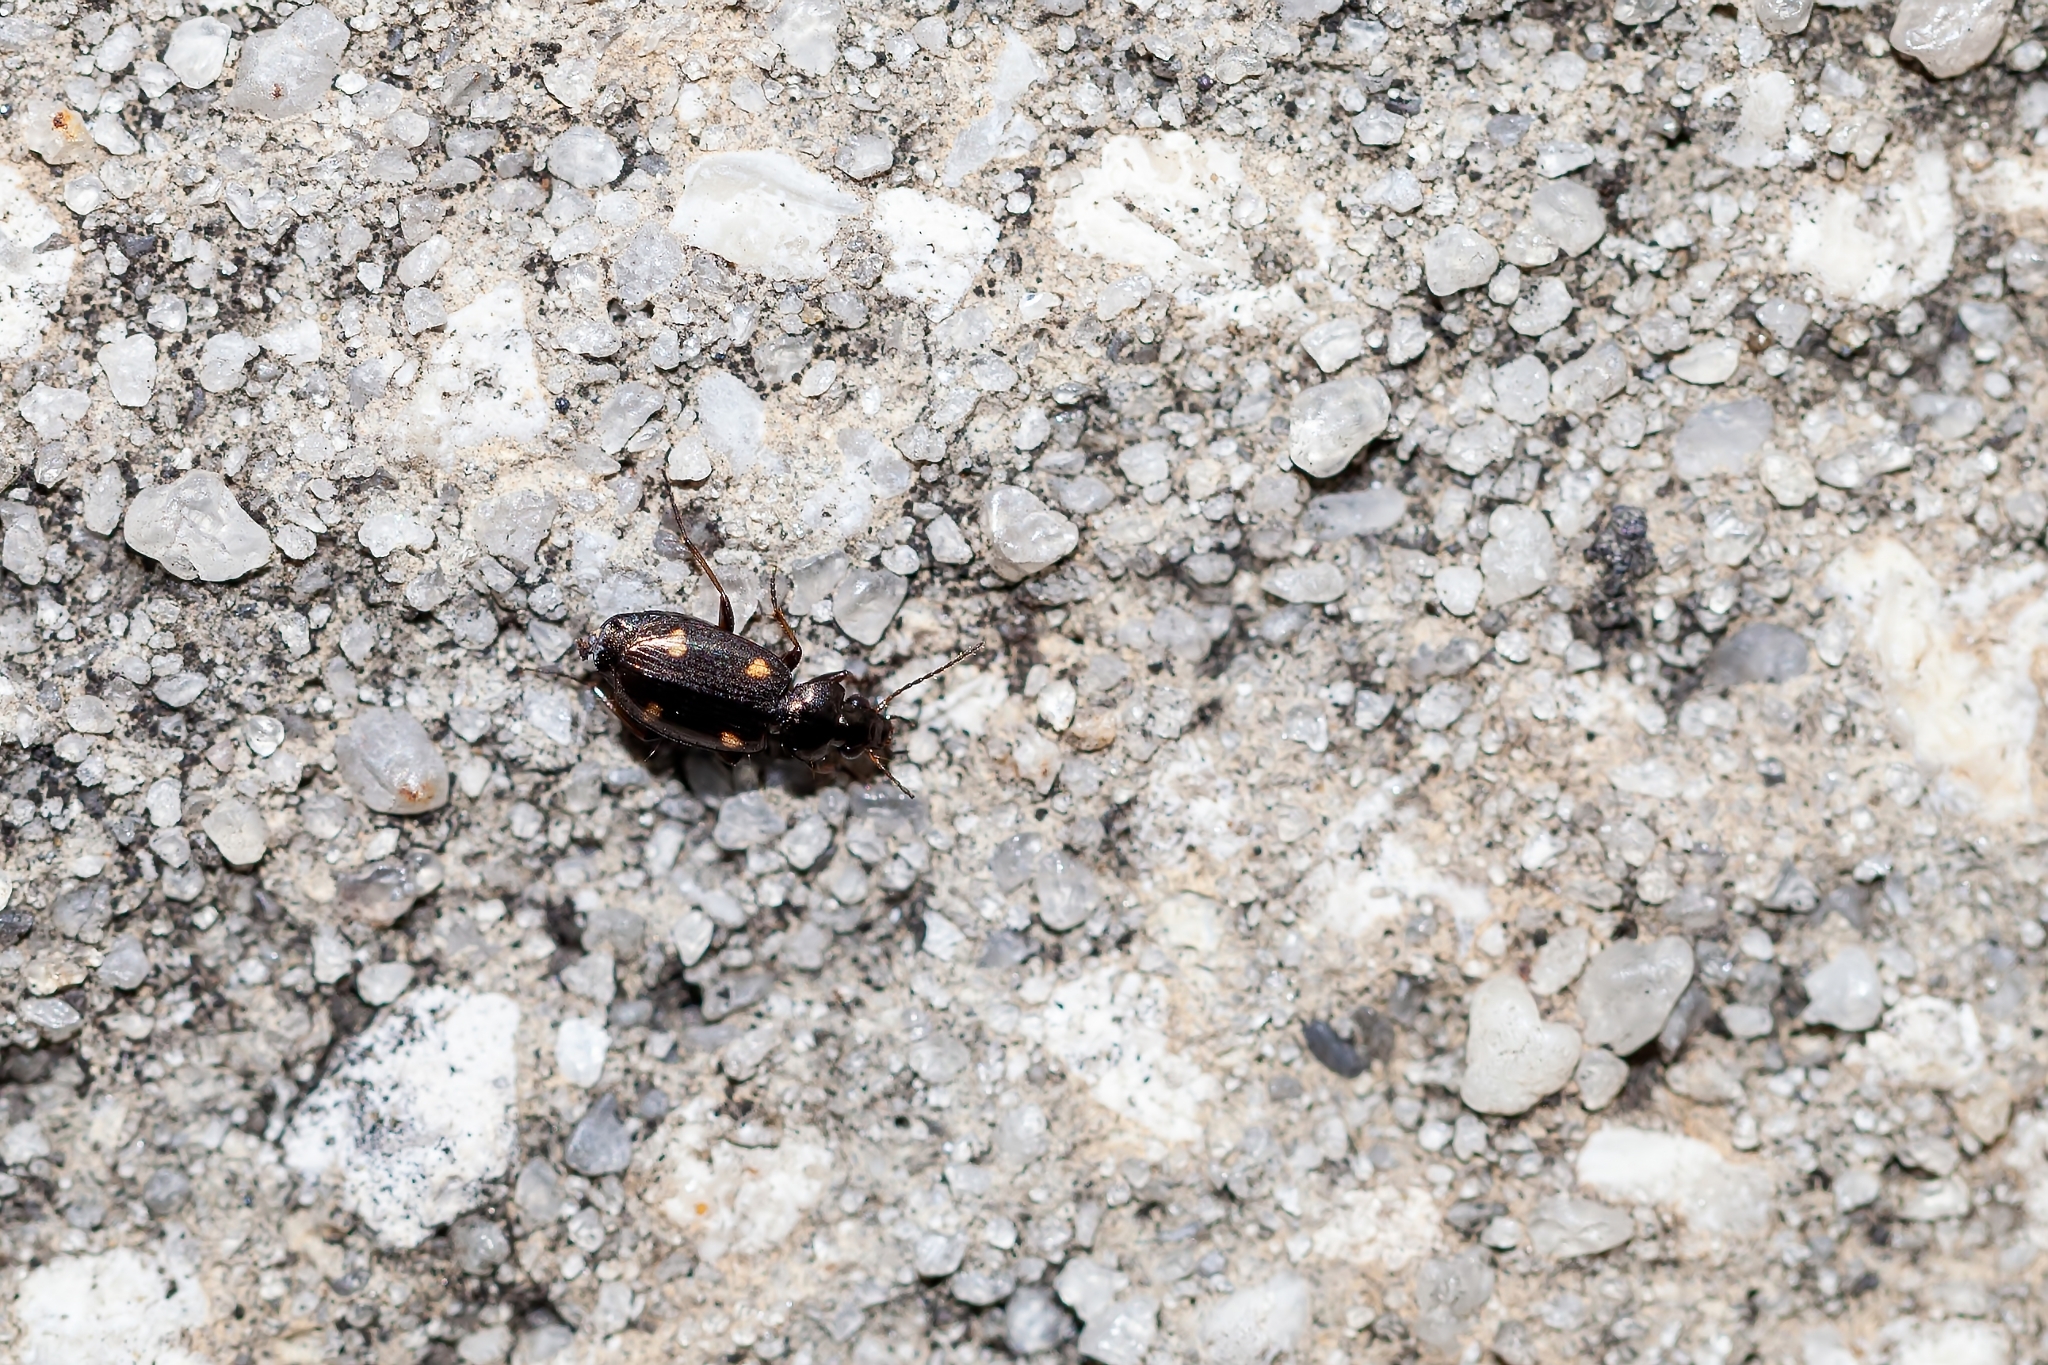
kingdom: Animalia
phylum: Arthropoda
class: Insecta
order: Coleoptera
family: Carabidae
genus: Tetragonoderus
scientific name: Tetragonoderus laevigatus
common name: Ground beetle
